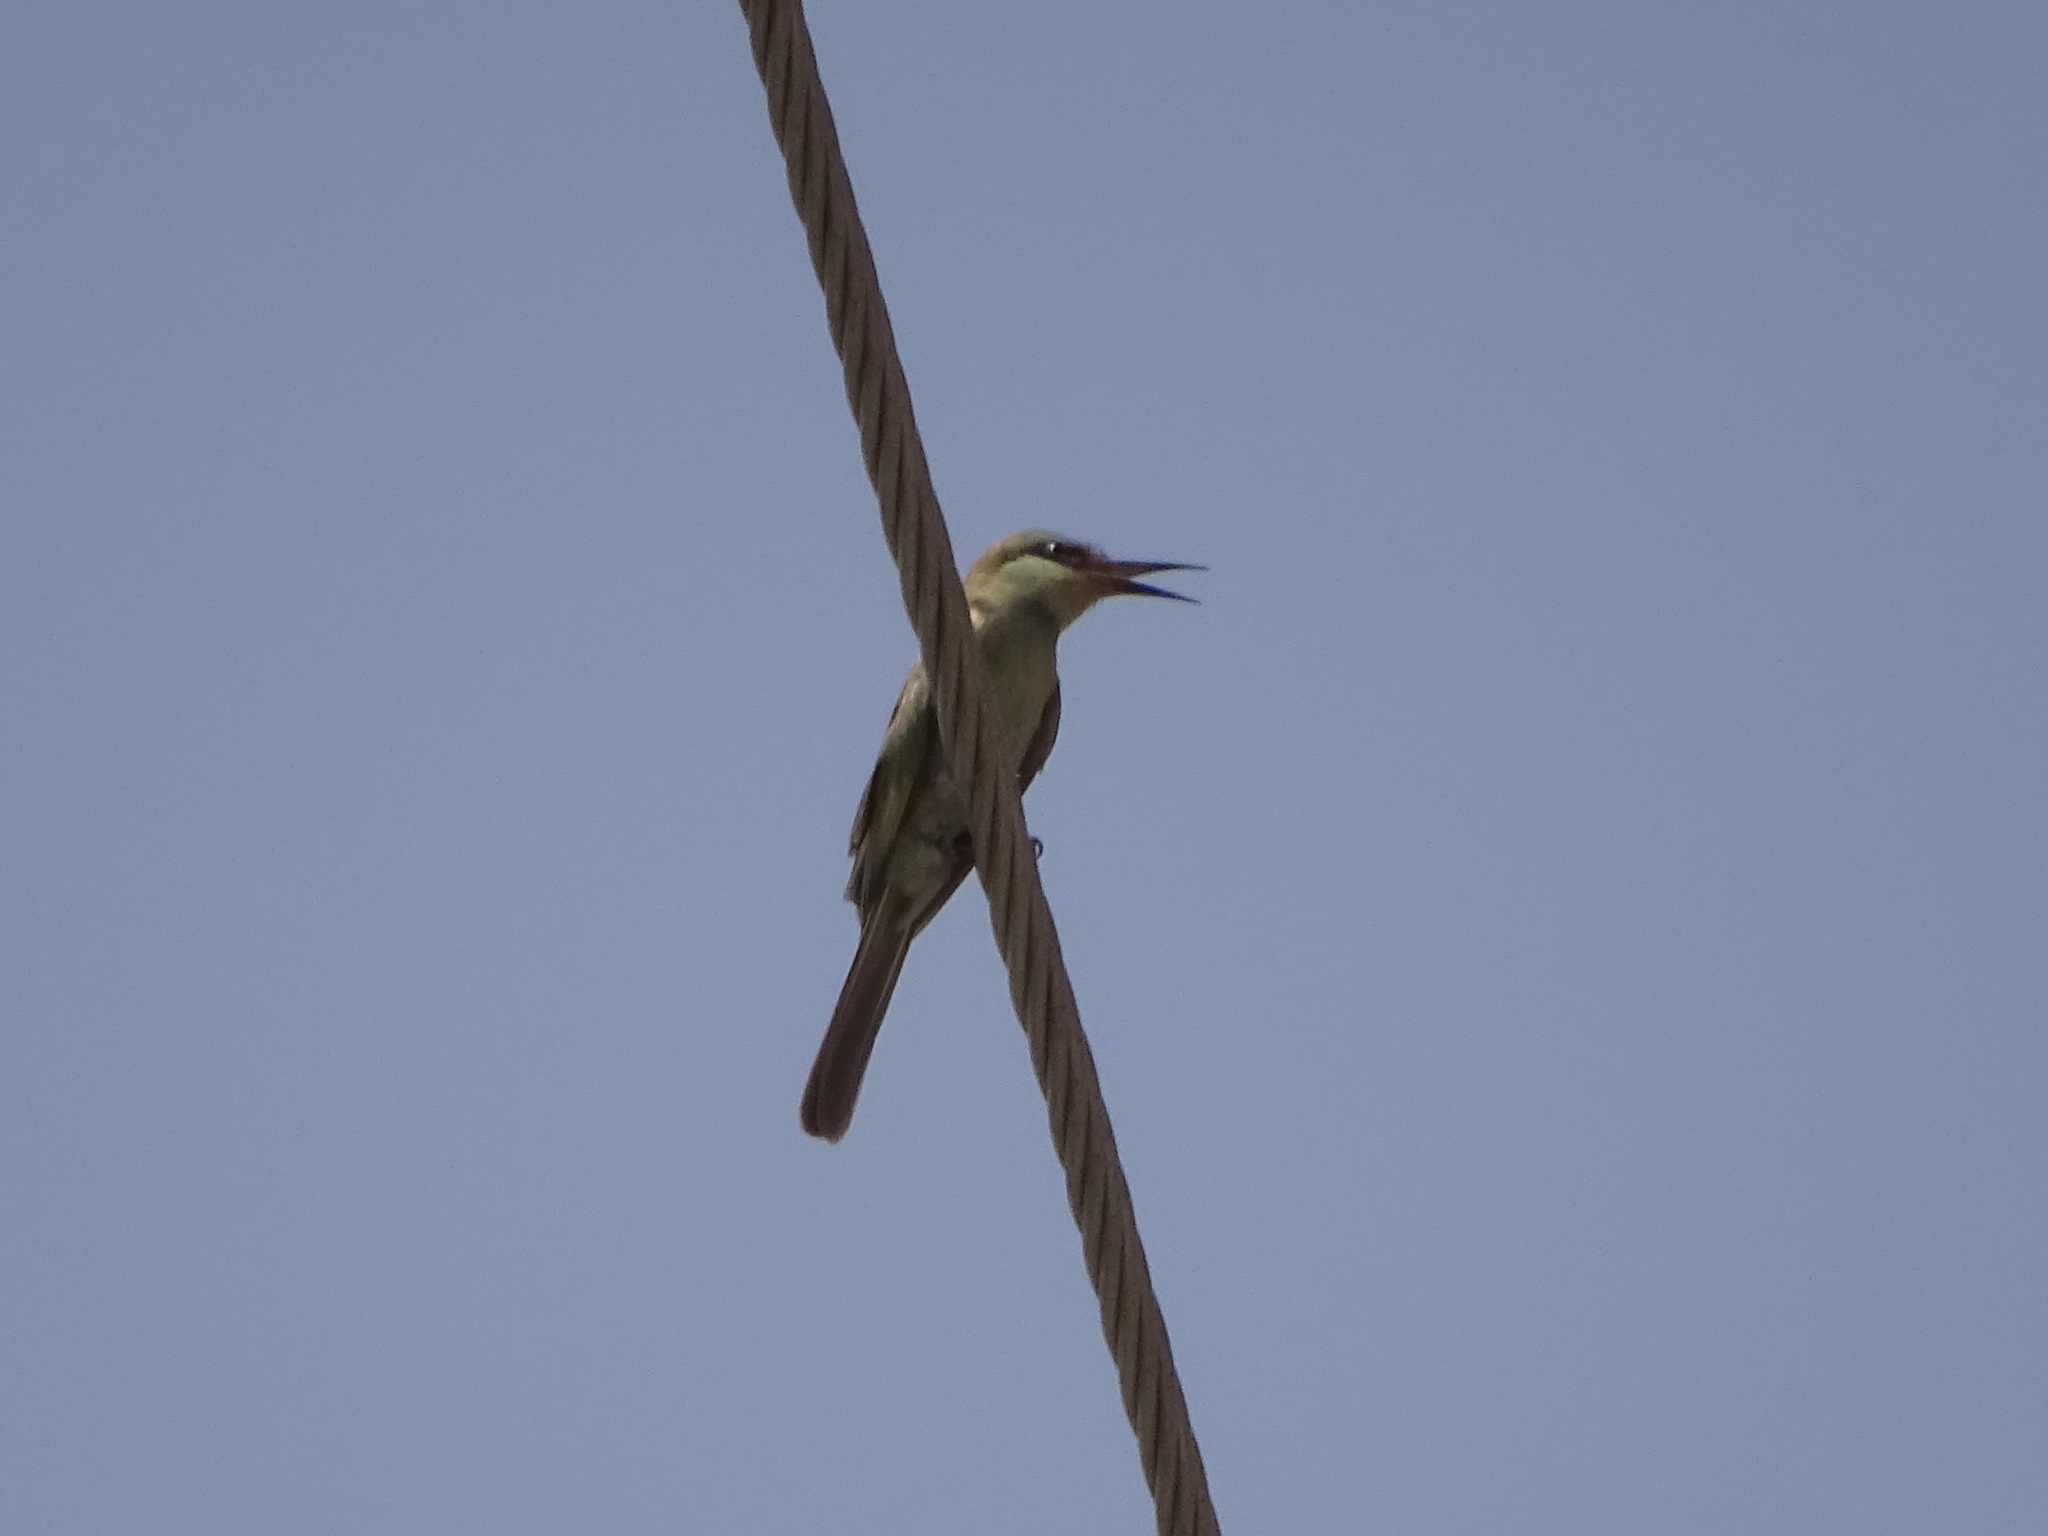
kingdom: Animalia
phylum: Chordata
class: Aves
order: Coraciiformes
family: Meropidae
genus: Merops
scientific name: Merops cyanophrys
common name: Arabian green bee-eater
